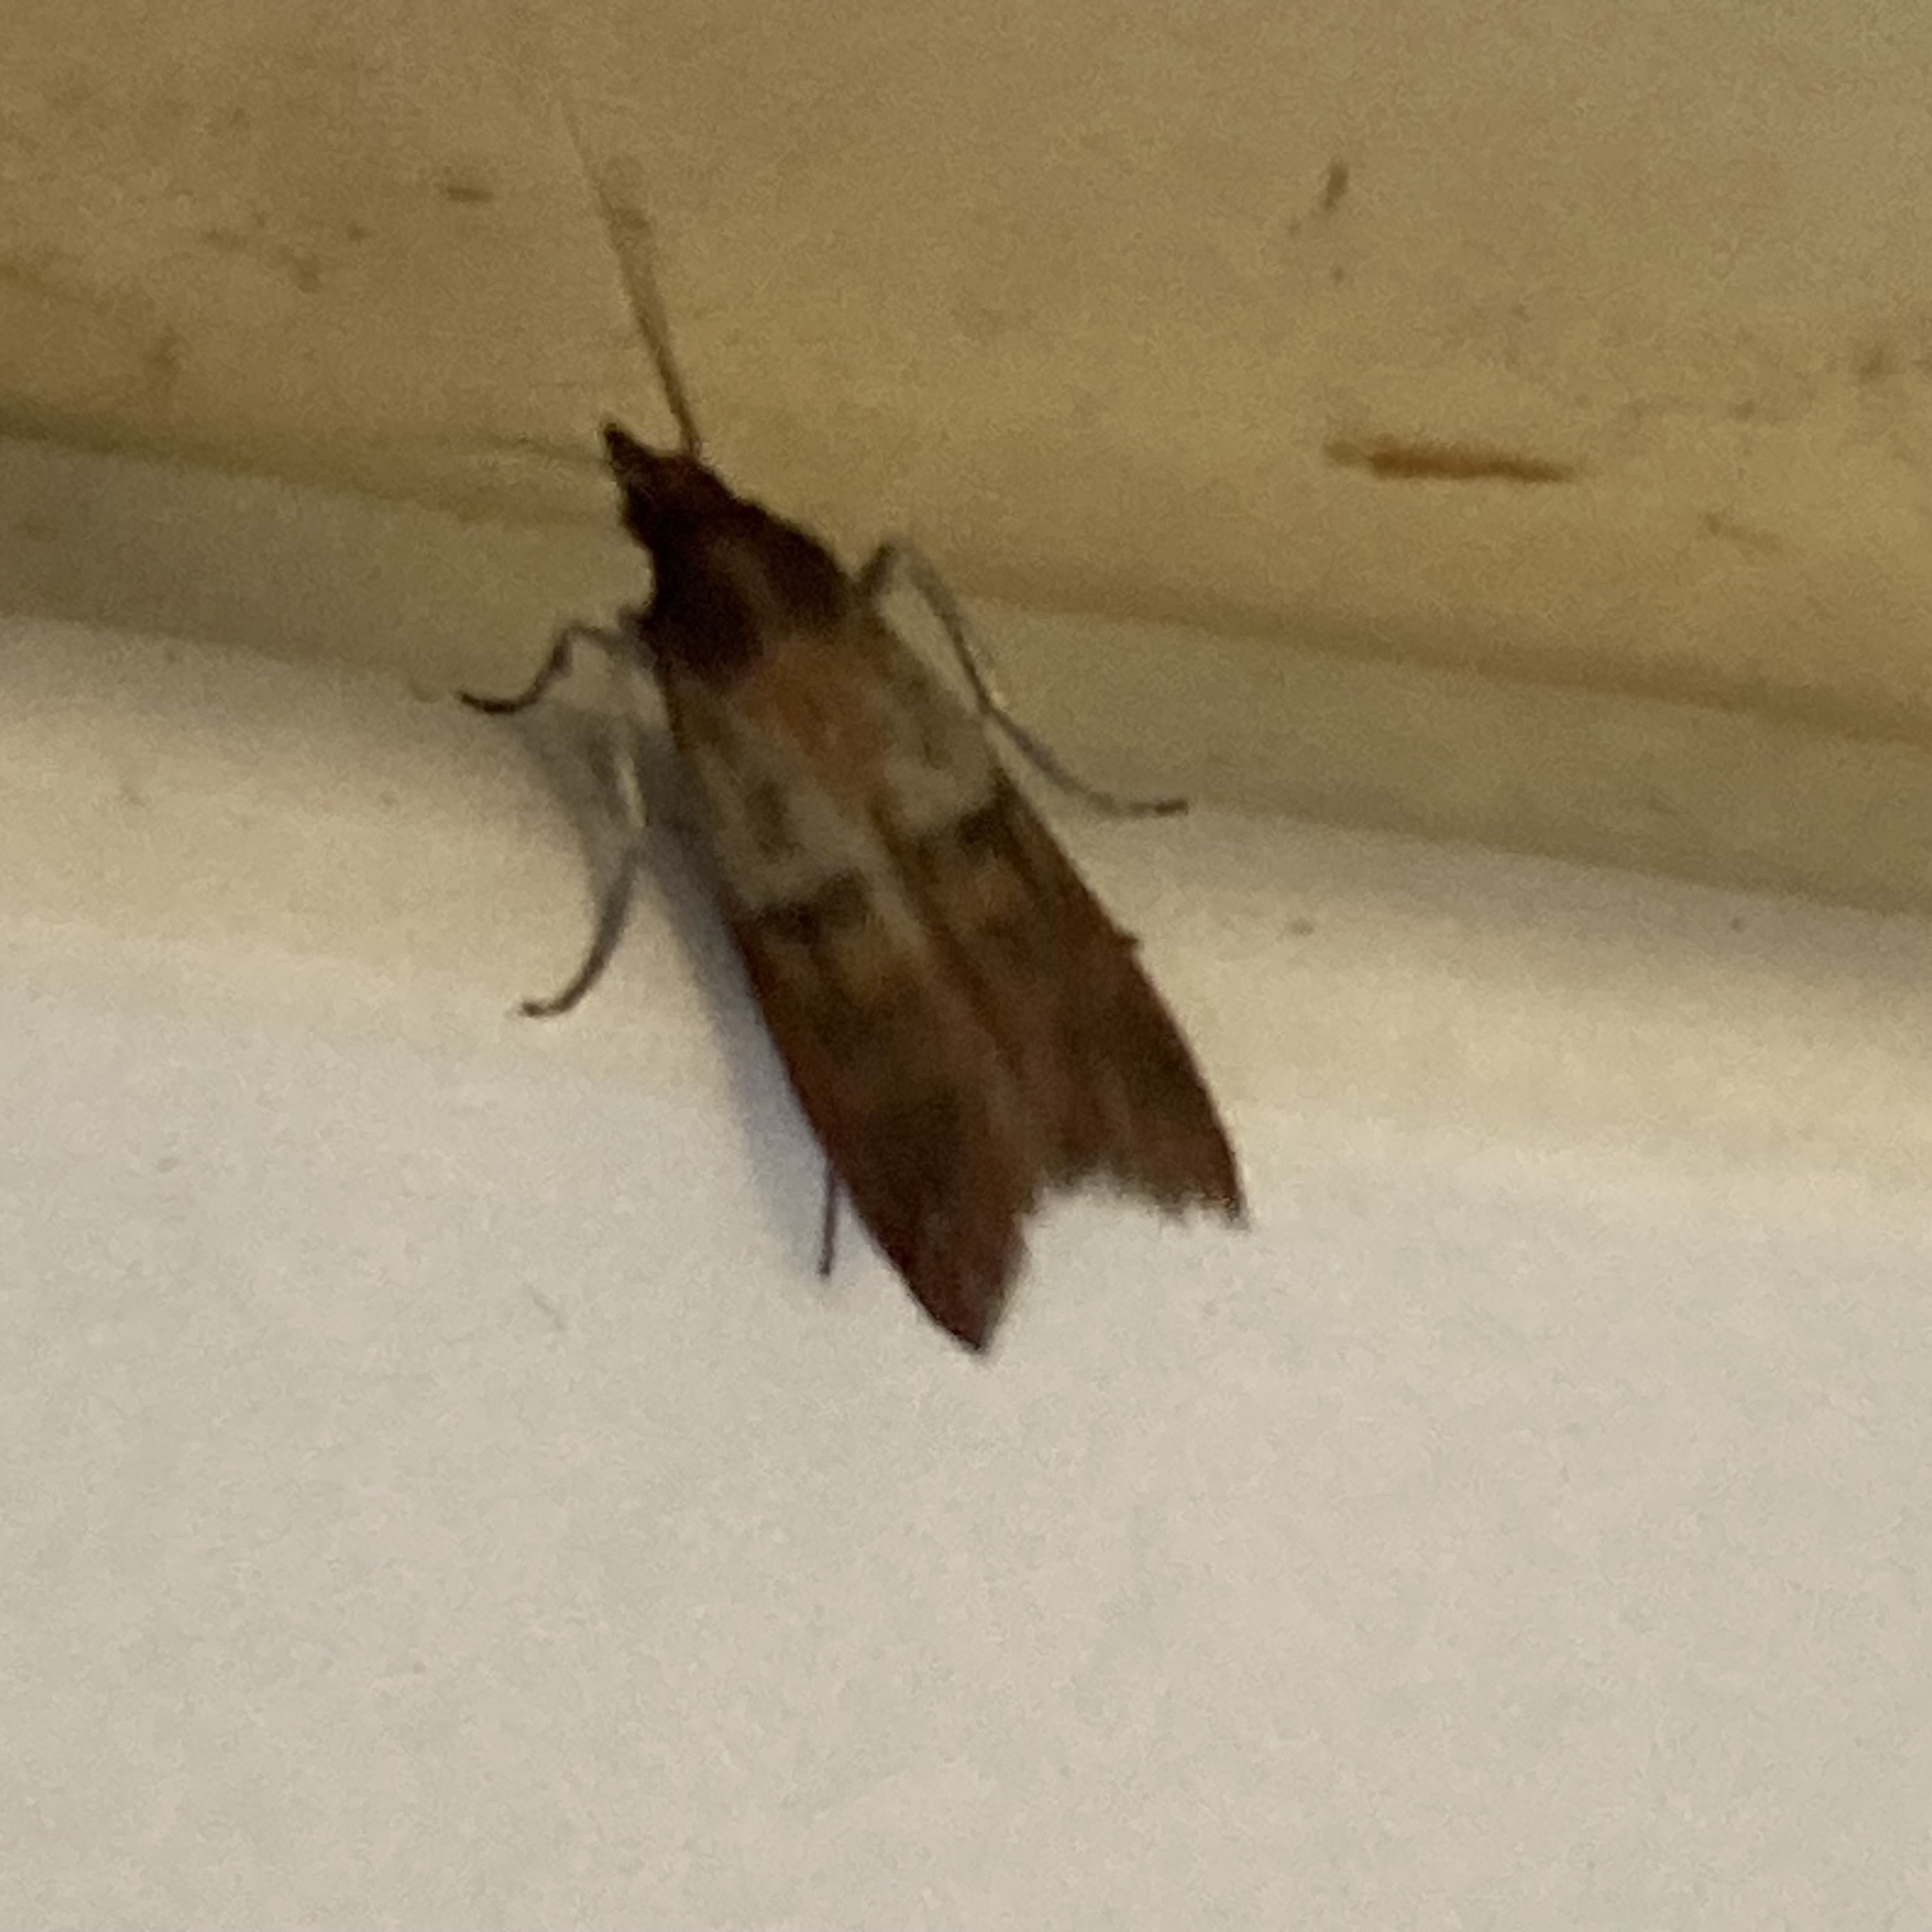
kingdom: Animalia
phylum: Arthropoda
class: Insecta
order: Lepidoptera
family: Pyralidae
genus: Plodia
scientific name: Plodia interpunctella
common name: Indian meal moth
